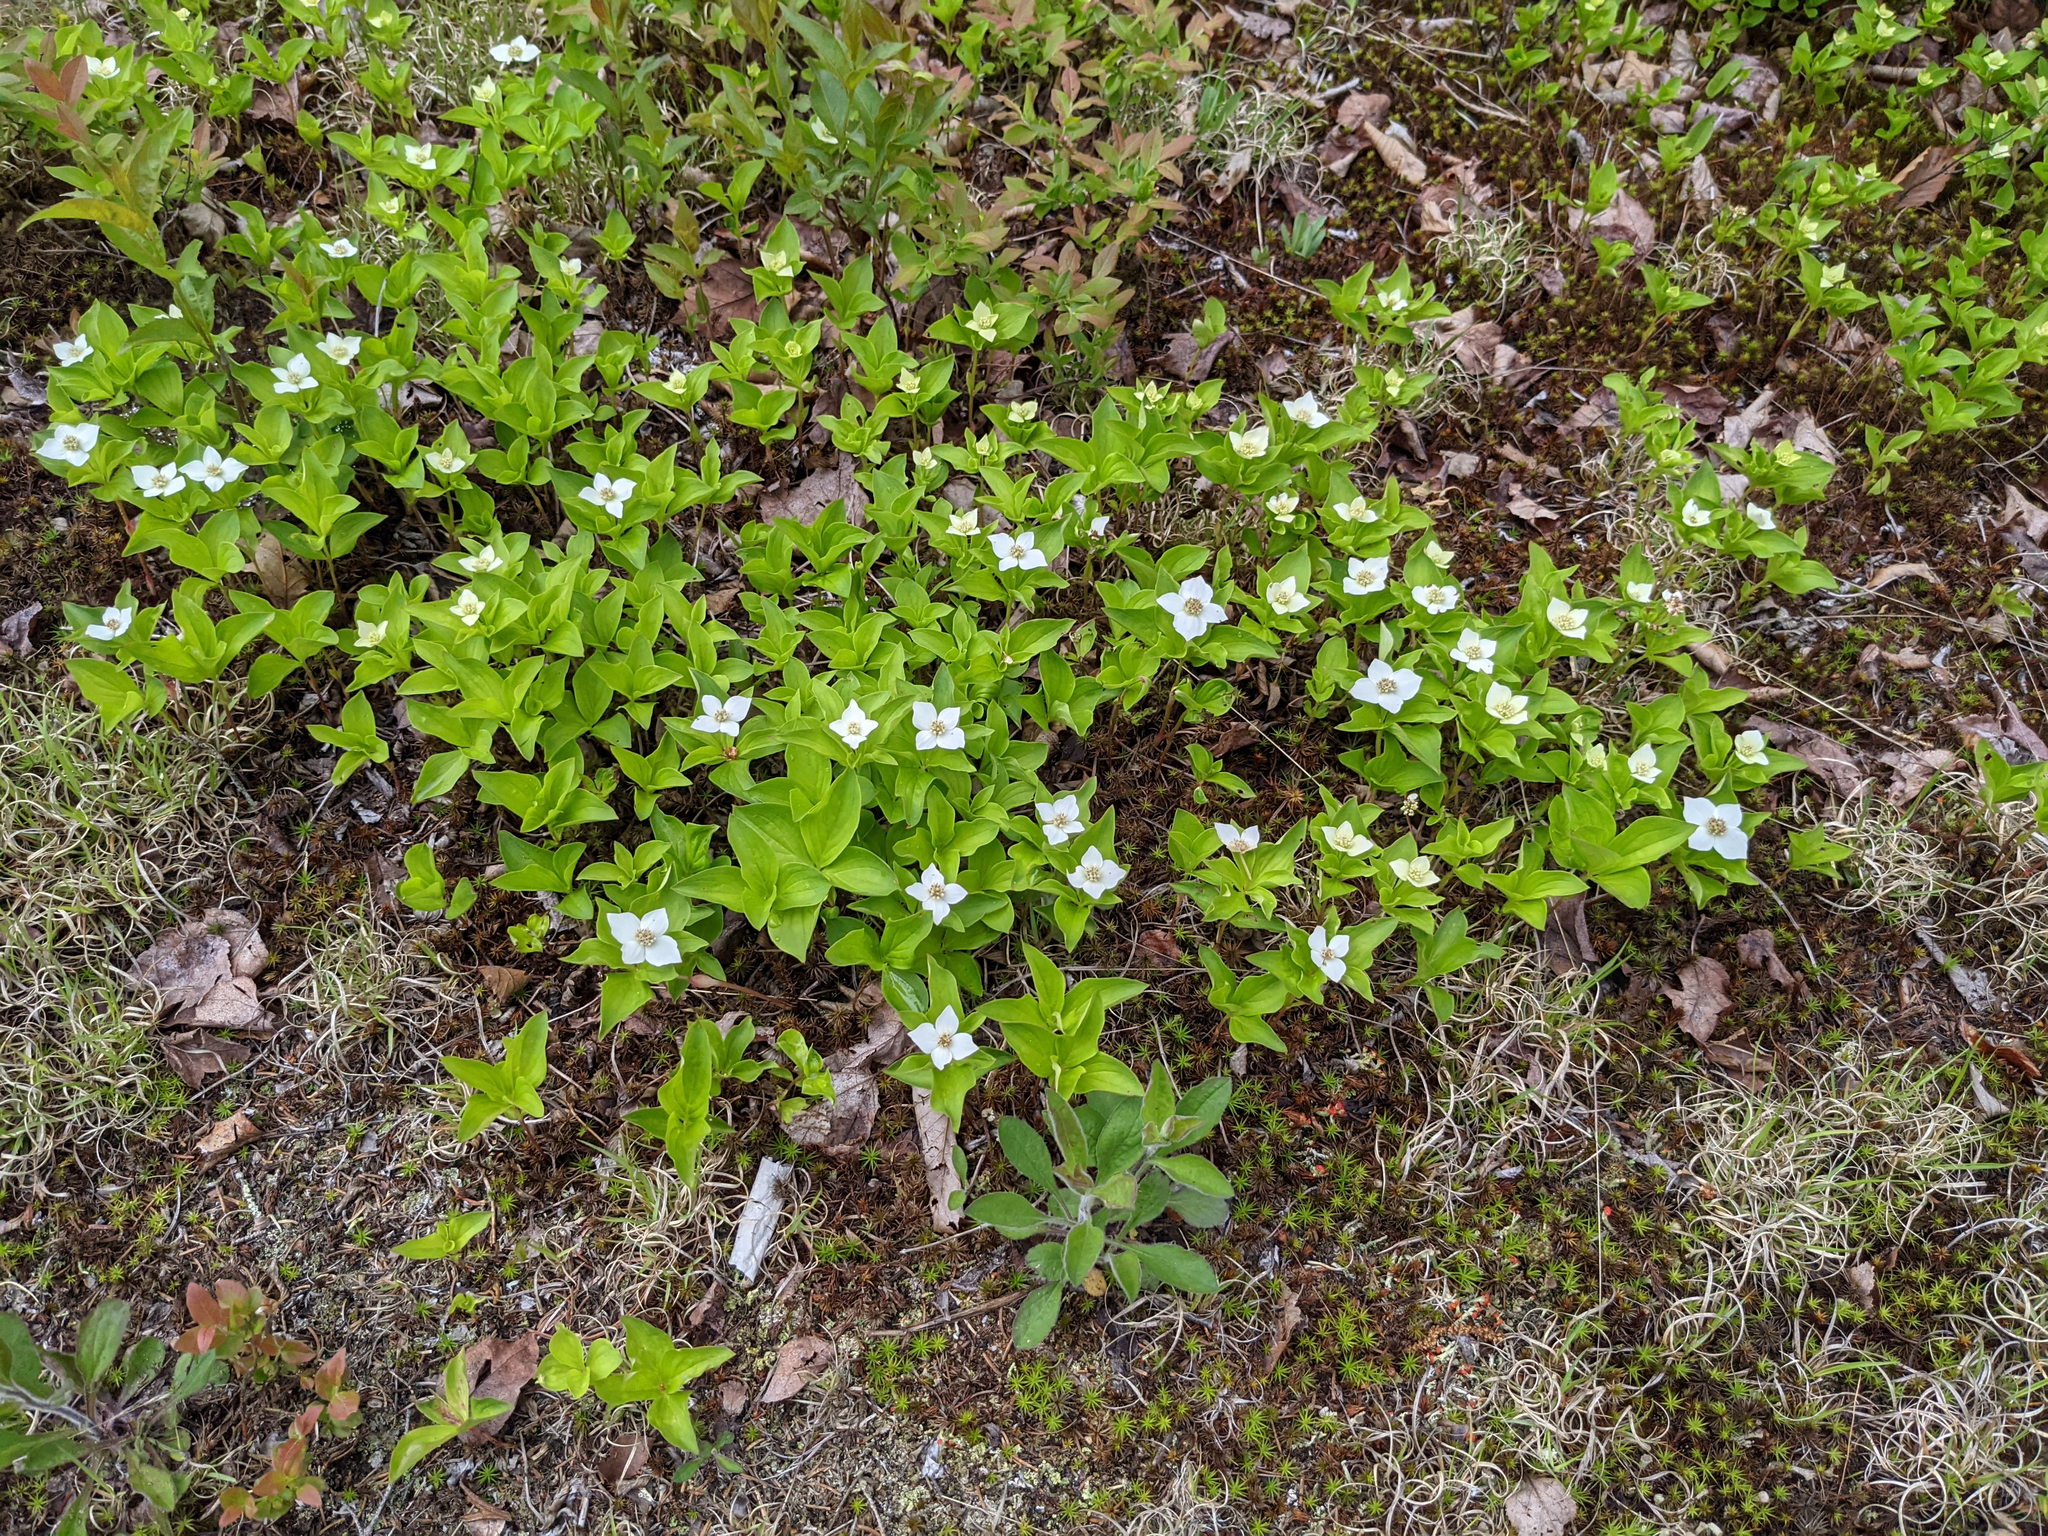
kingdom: Plantae
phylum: Tracheophyta
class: Magnoliopsida
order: Cornales
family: Cornaceae
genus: Cornus
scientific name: Cornus canadensis
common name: Creeping dogwood
